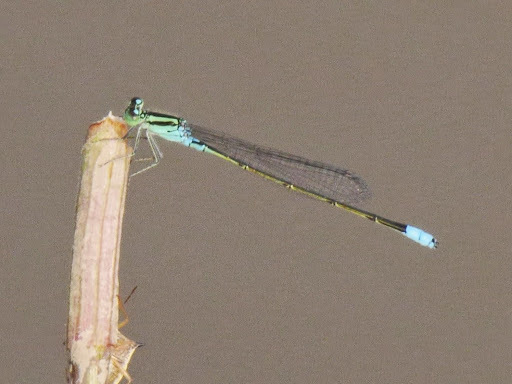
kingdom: Animalia
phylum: Arthropoda
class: Insecta
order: Odonata
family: Coenagrionidae
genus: Pseudagrion
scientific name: Pseudagrion nubicum
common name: Bluetail sprite
